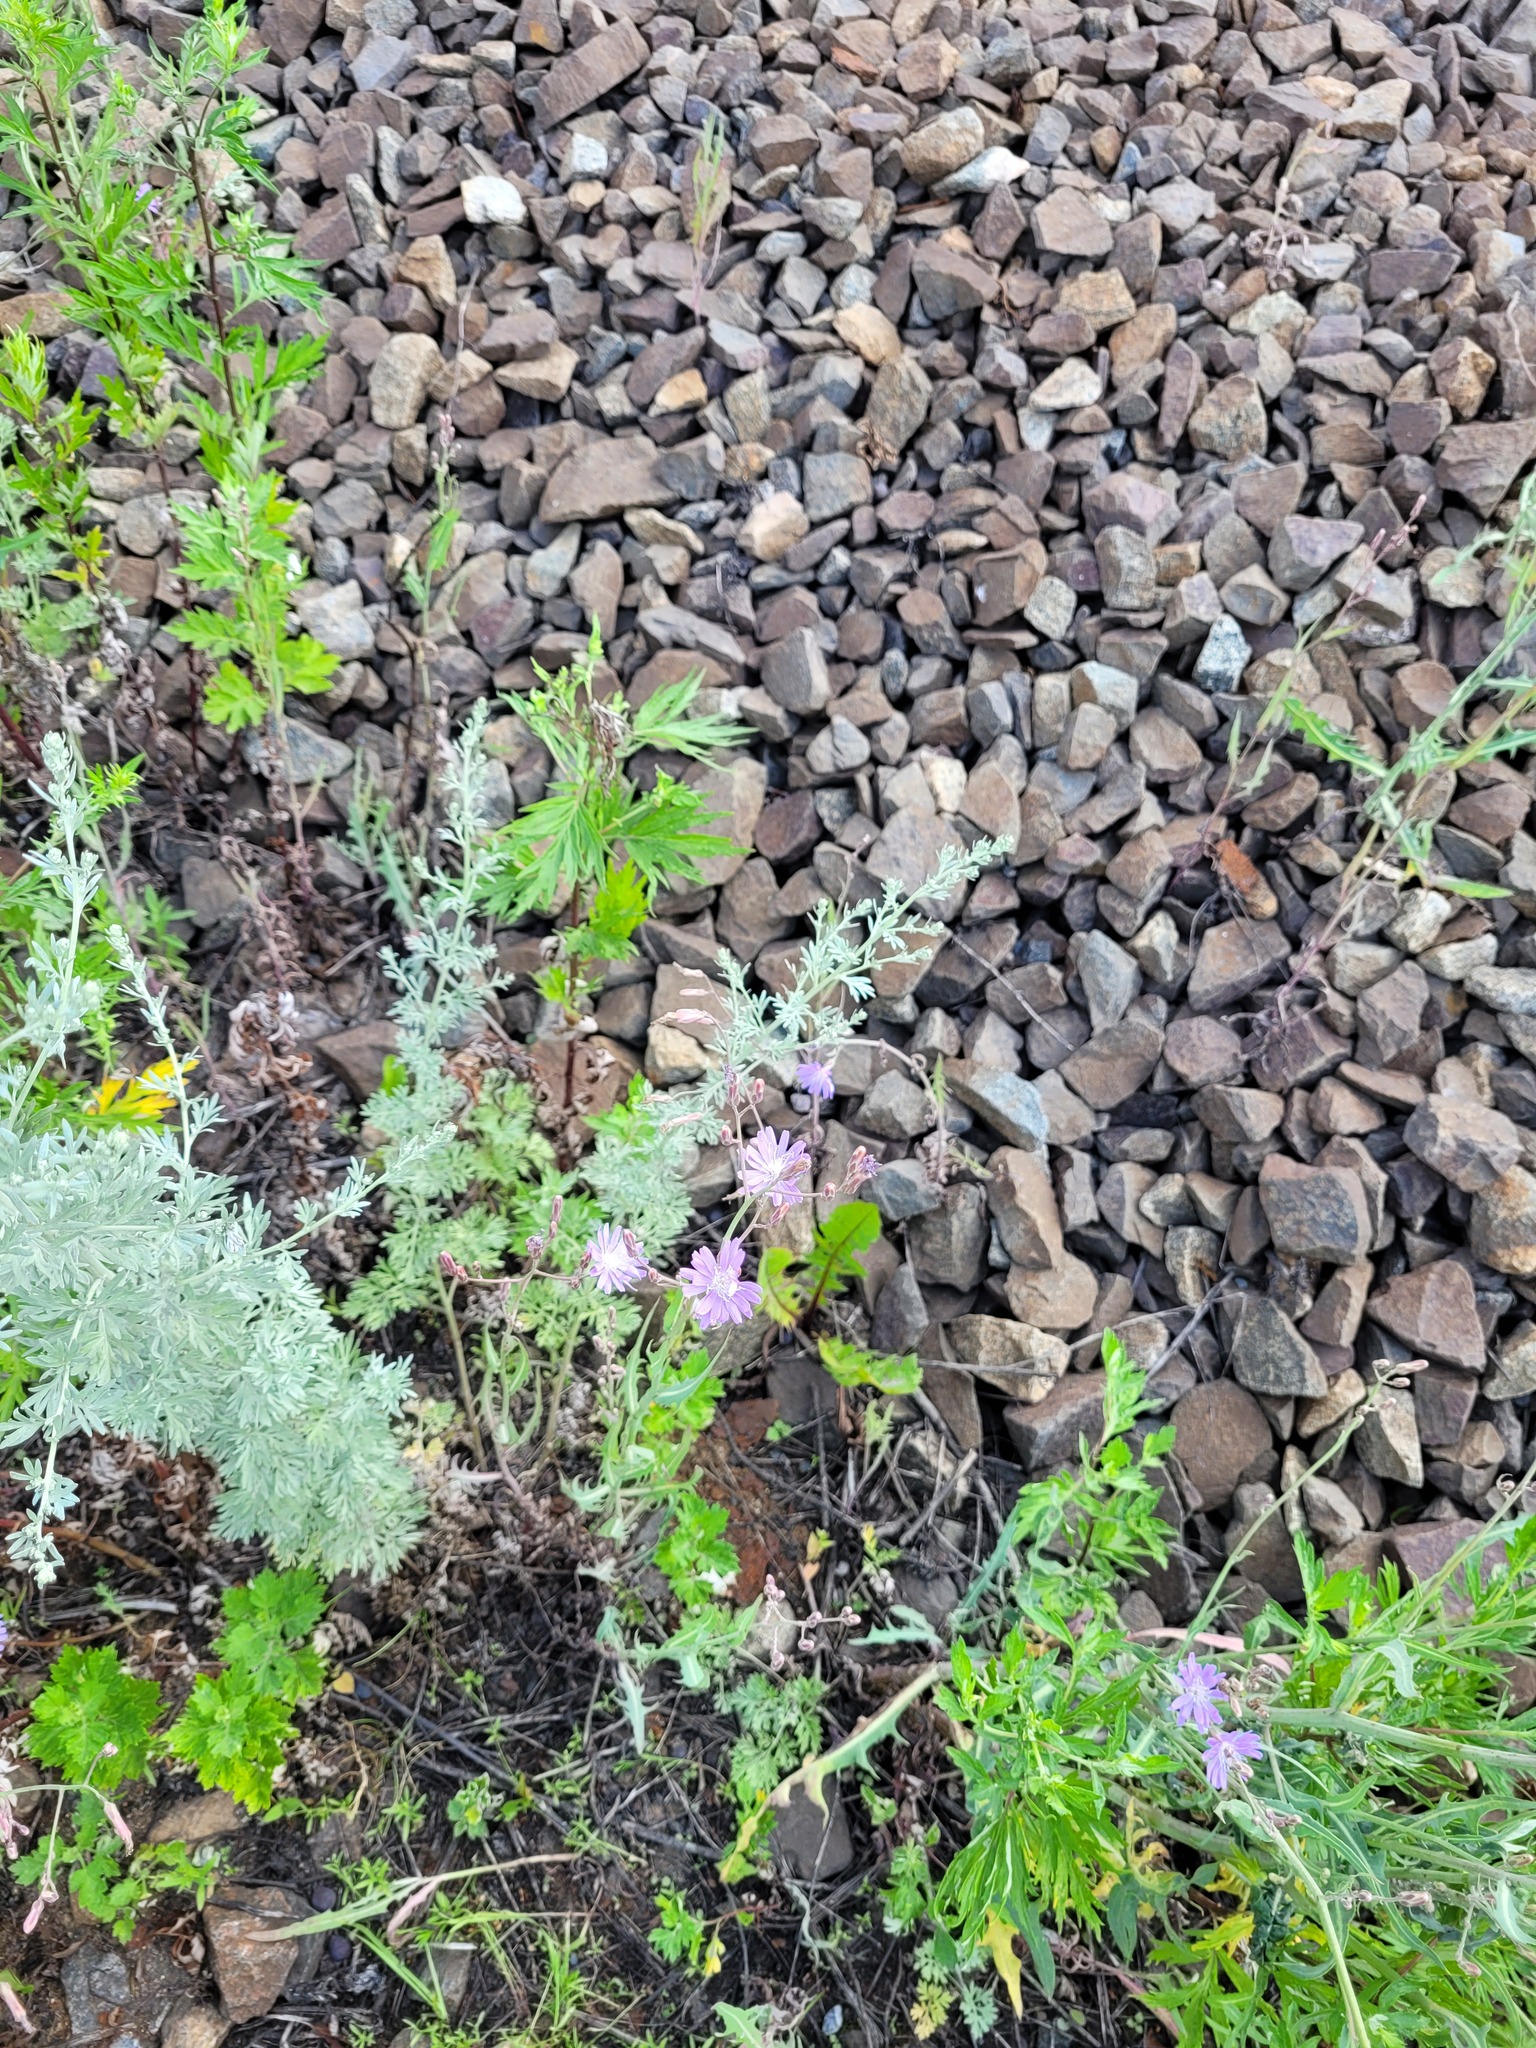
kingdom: Plantae
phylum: Tracheophyta
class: Magnoliopsida
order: Asterales
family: Asteraceae
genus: Lactuca
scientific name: Lactuca tatarica
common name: Blue lettuce
